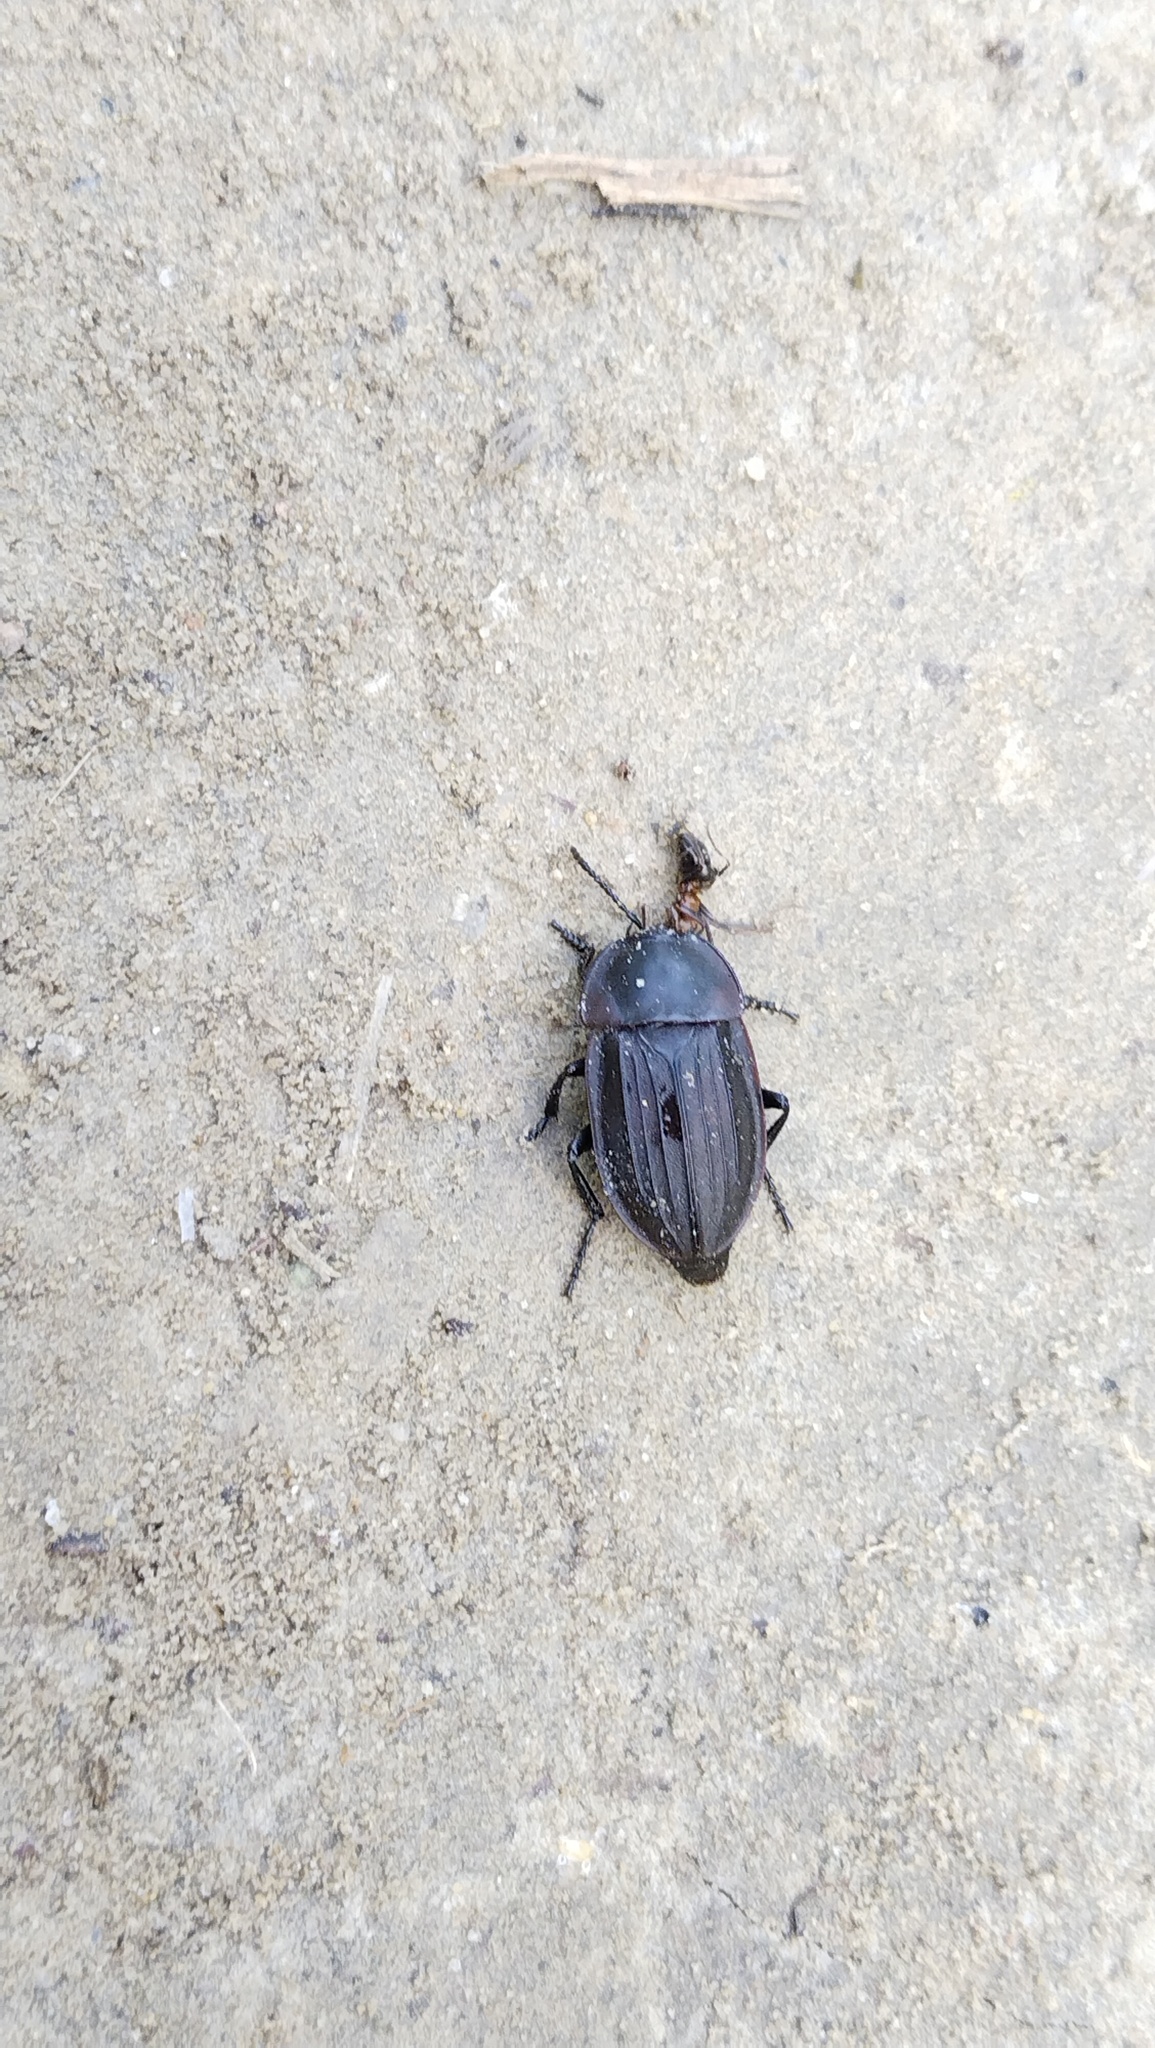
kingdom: Animalia
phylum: Arthropoda
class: Insecta
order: Coleoptera
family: Staphylinidae
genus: Silpha
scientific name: Silpha carinata
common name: Silphid beetle
